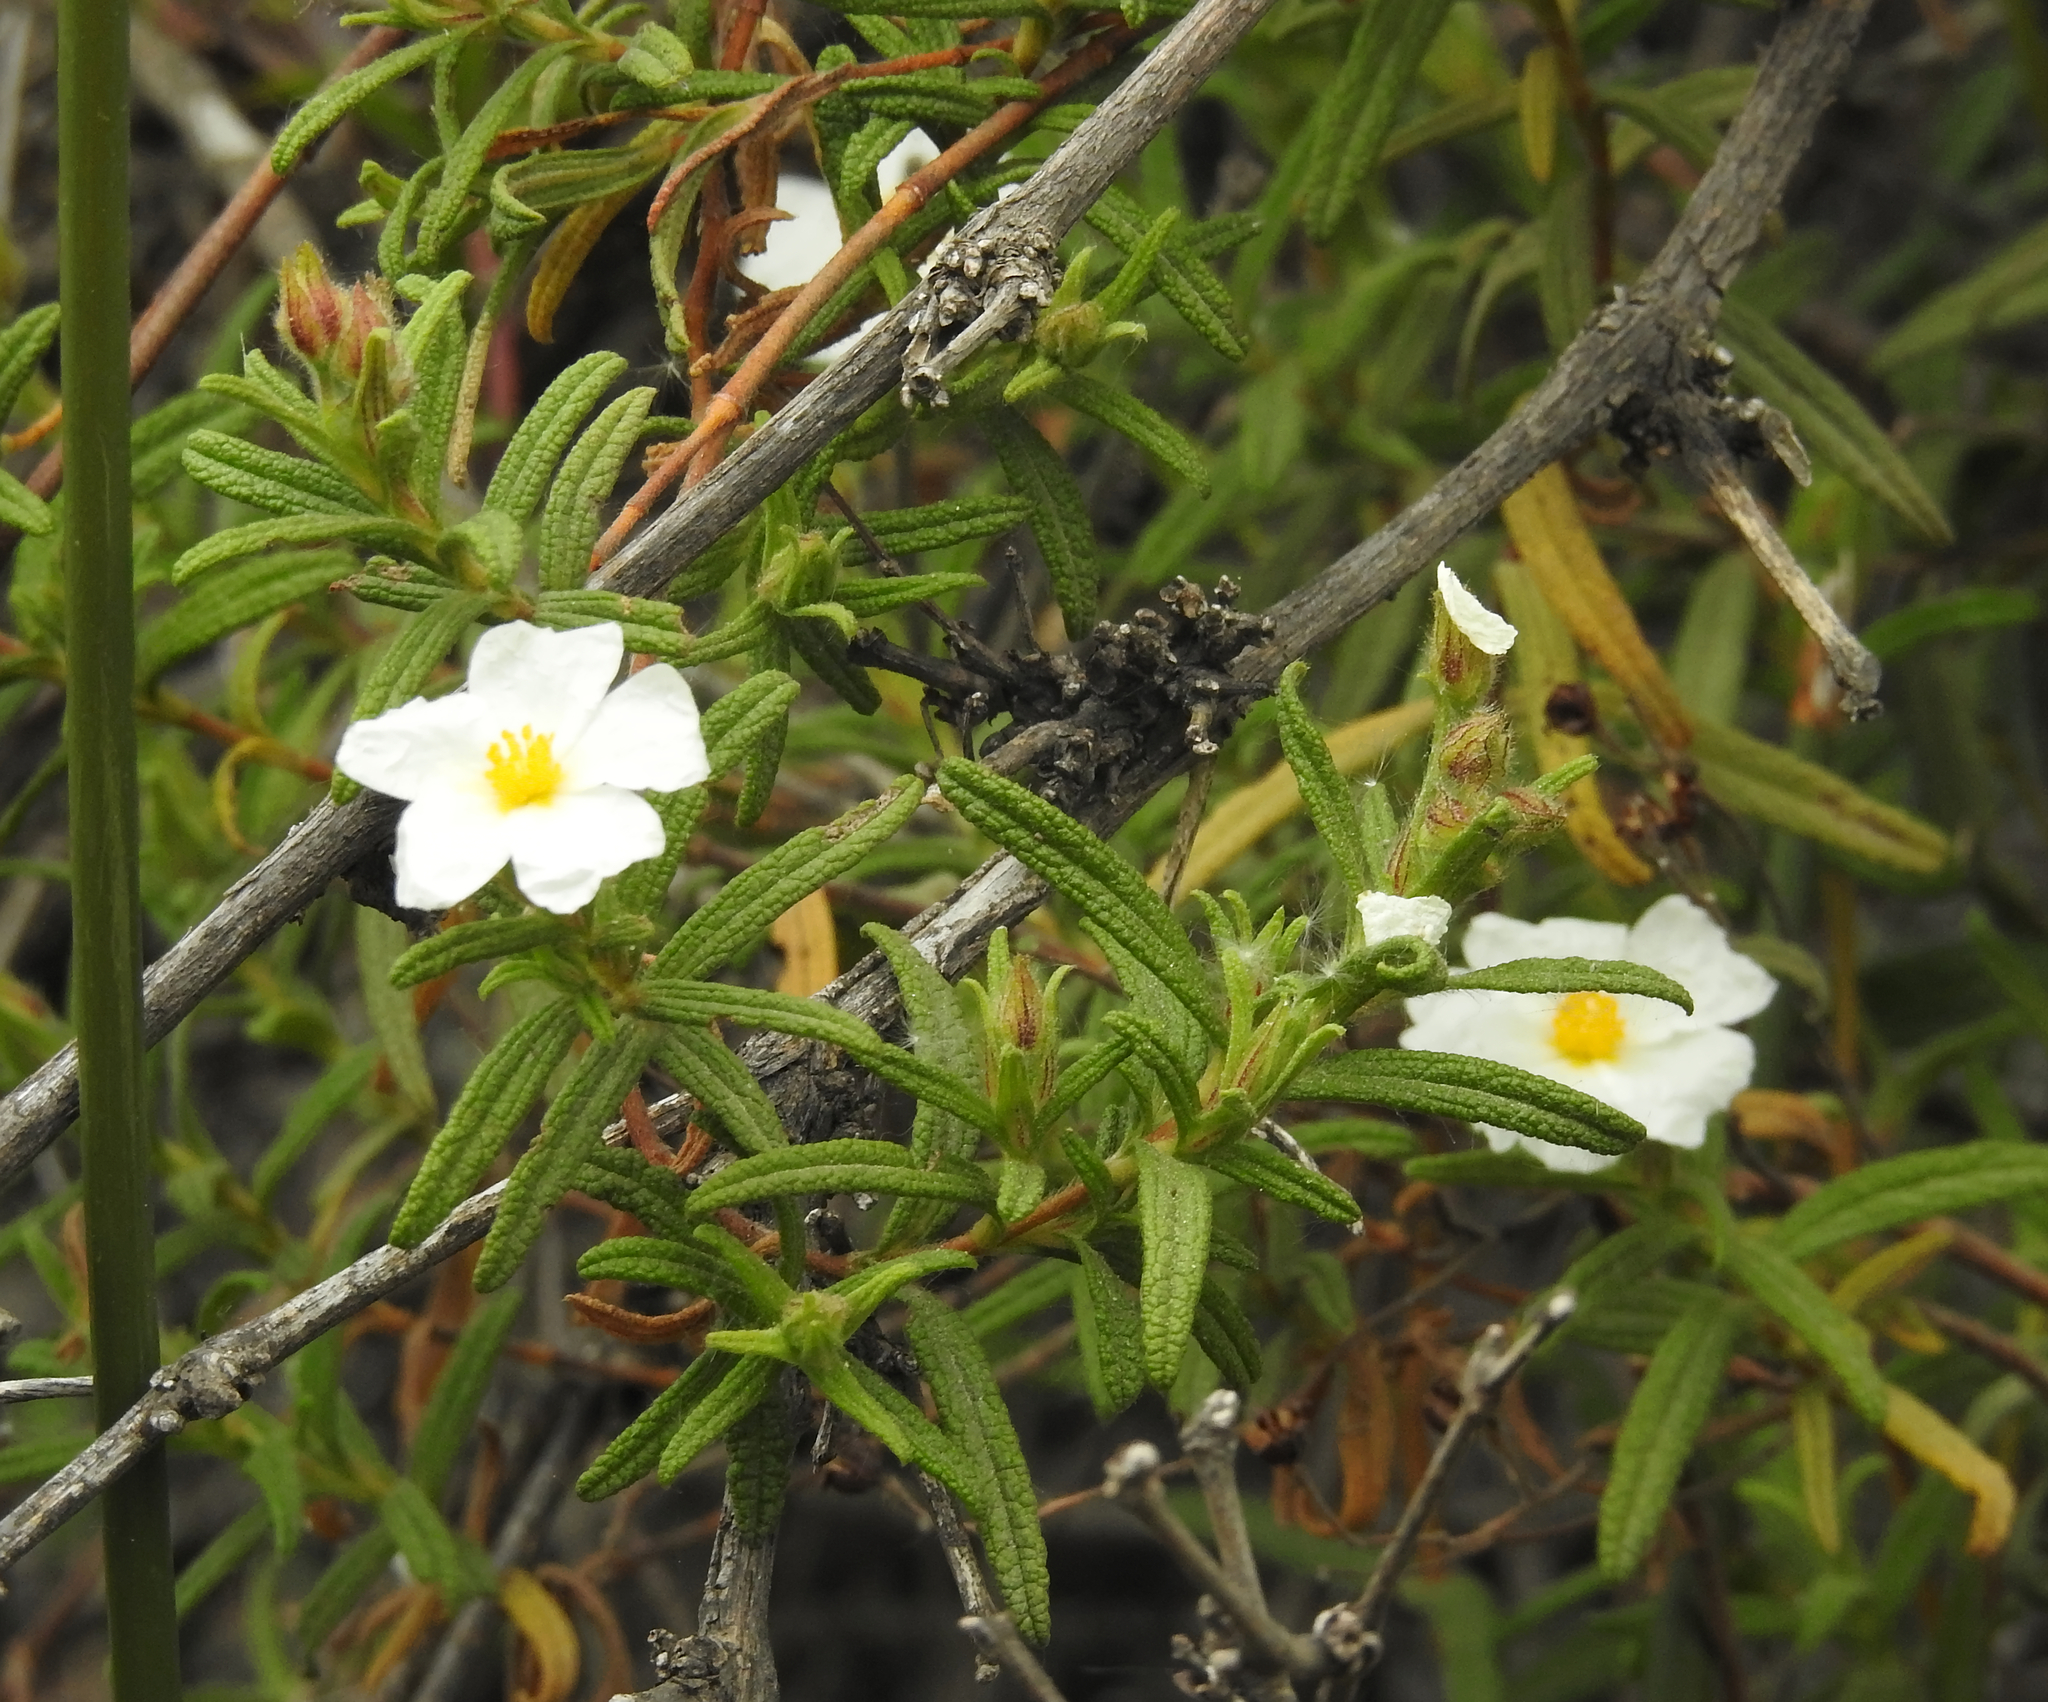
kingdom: Plantae
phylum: Tracheophyta
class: Magnoliopsida
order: Malvales
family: Cistaceae
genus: Cistus
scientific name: Cistus monspeliensis
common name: Montpelier cistus
